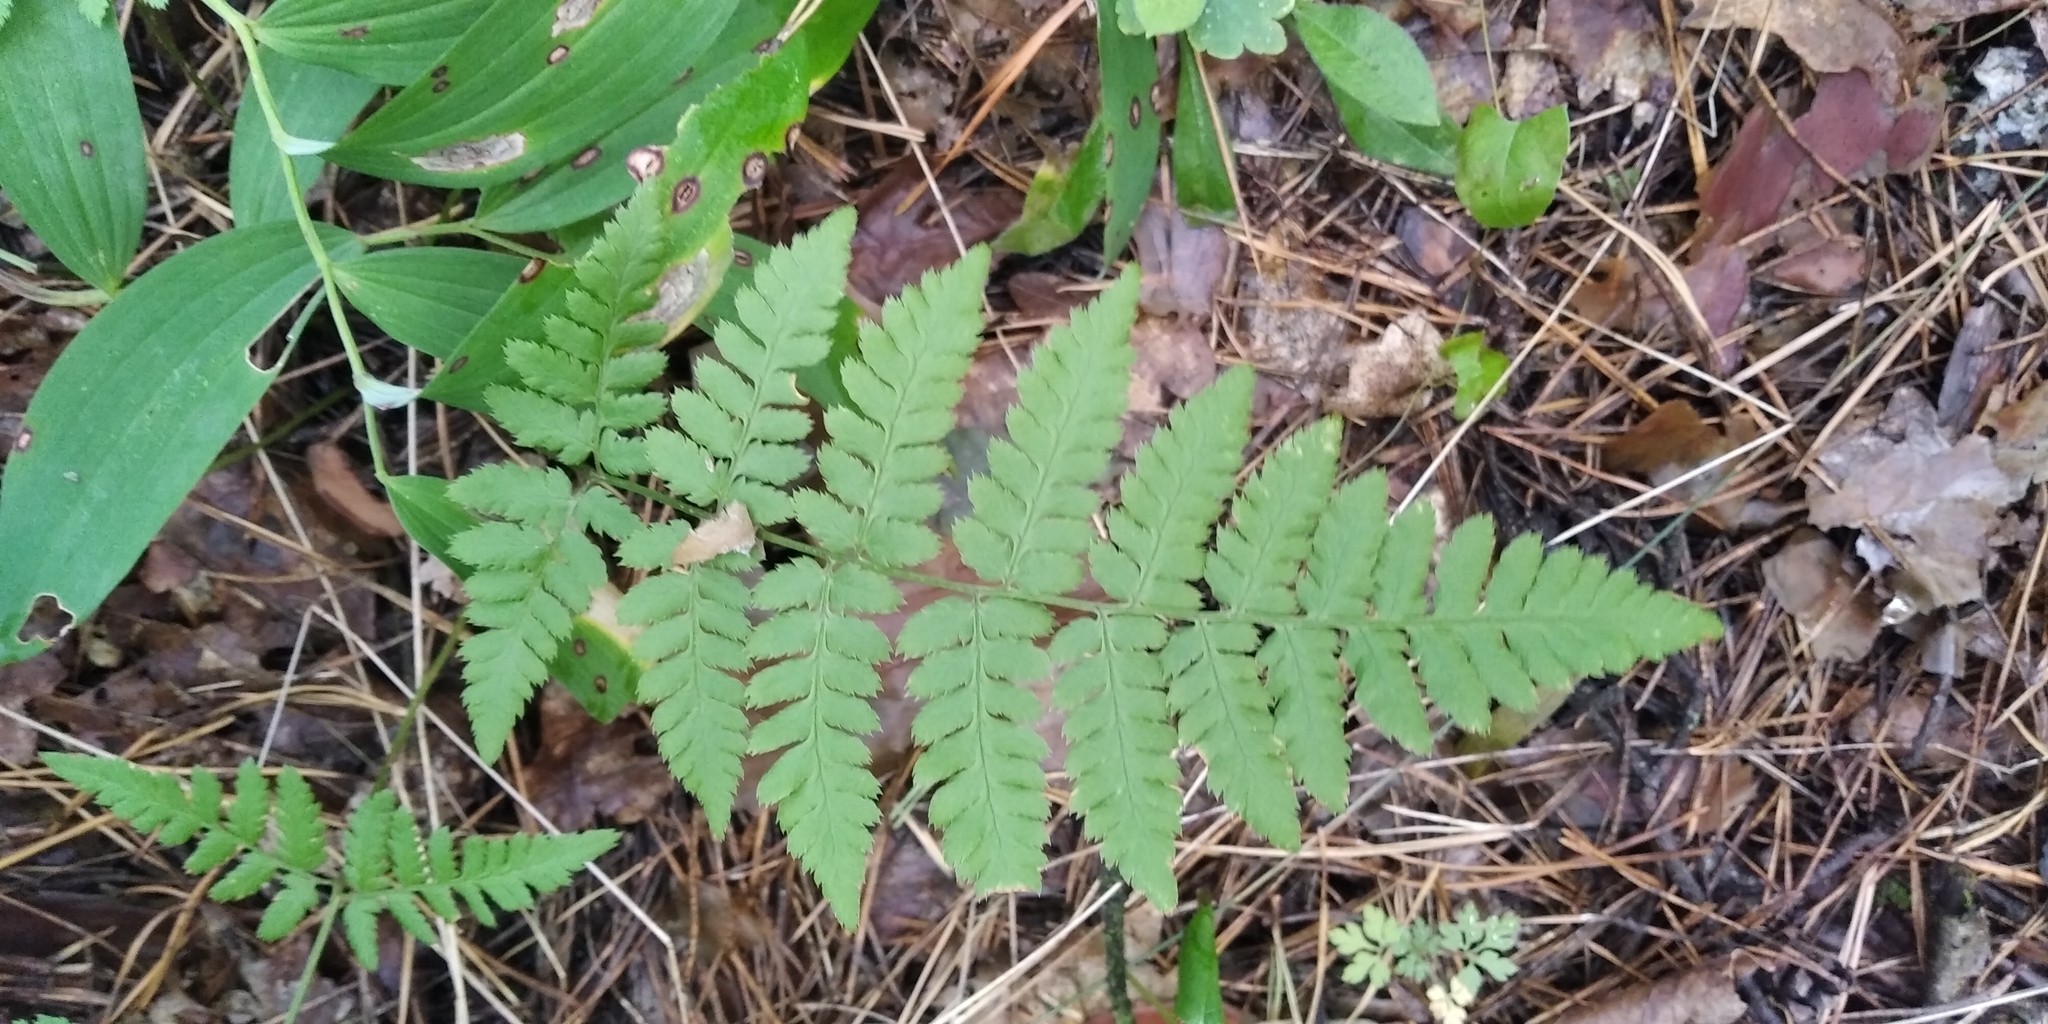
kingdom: Plantae
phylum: Tracheophyta
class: Polypodiopsida
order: Polypodiales
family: Dryopteridaceae
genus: Dryopteris
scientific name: Dryopteris carthusiana
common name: Narrow buckler-fern
